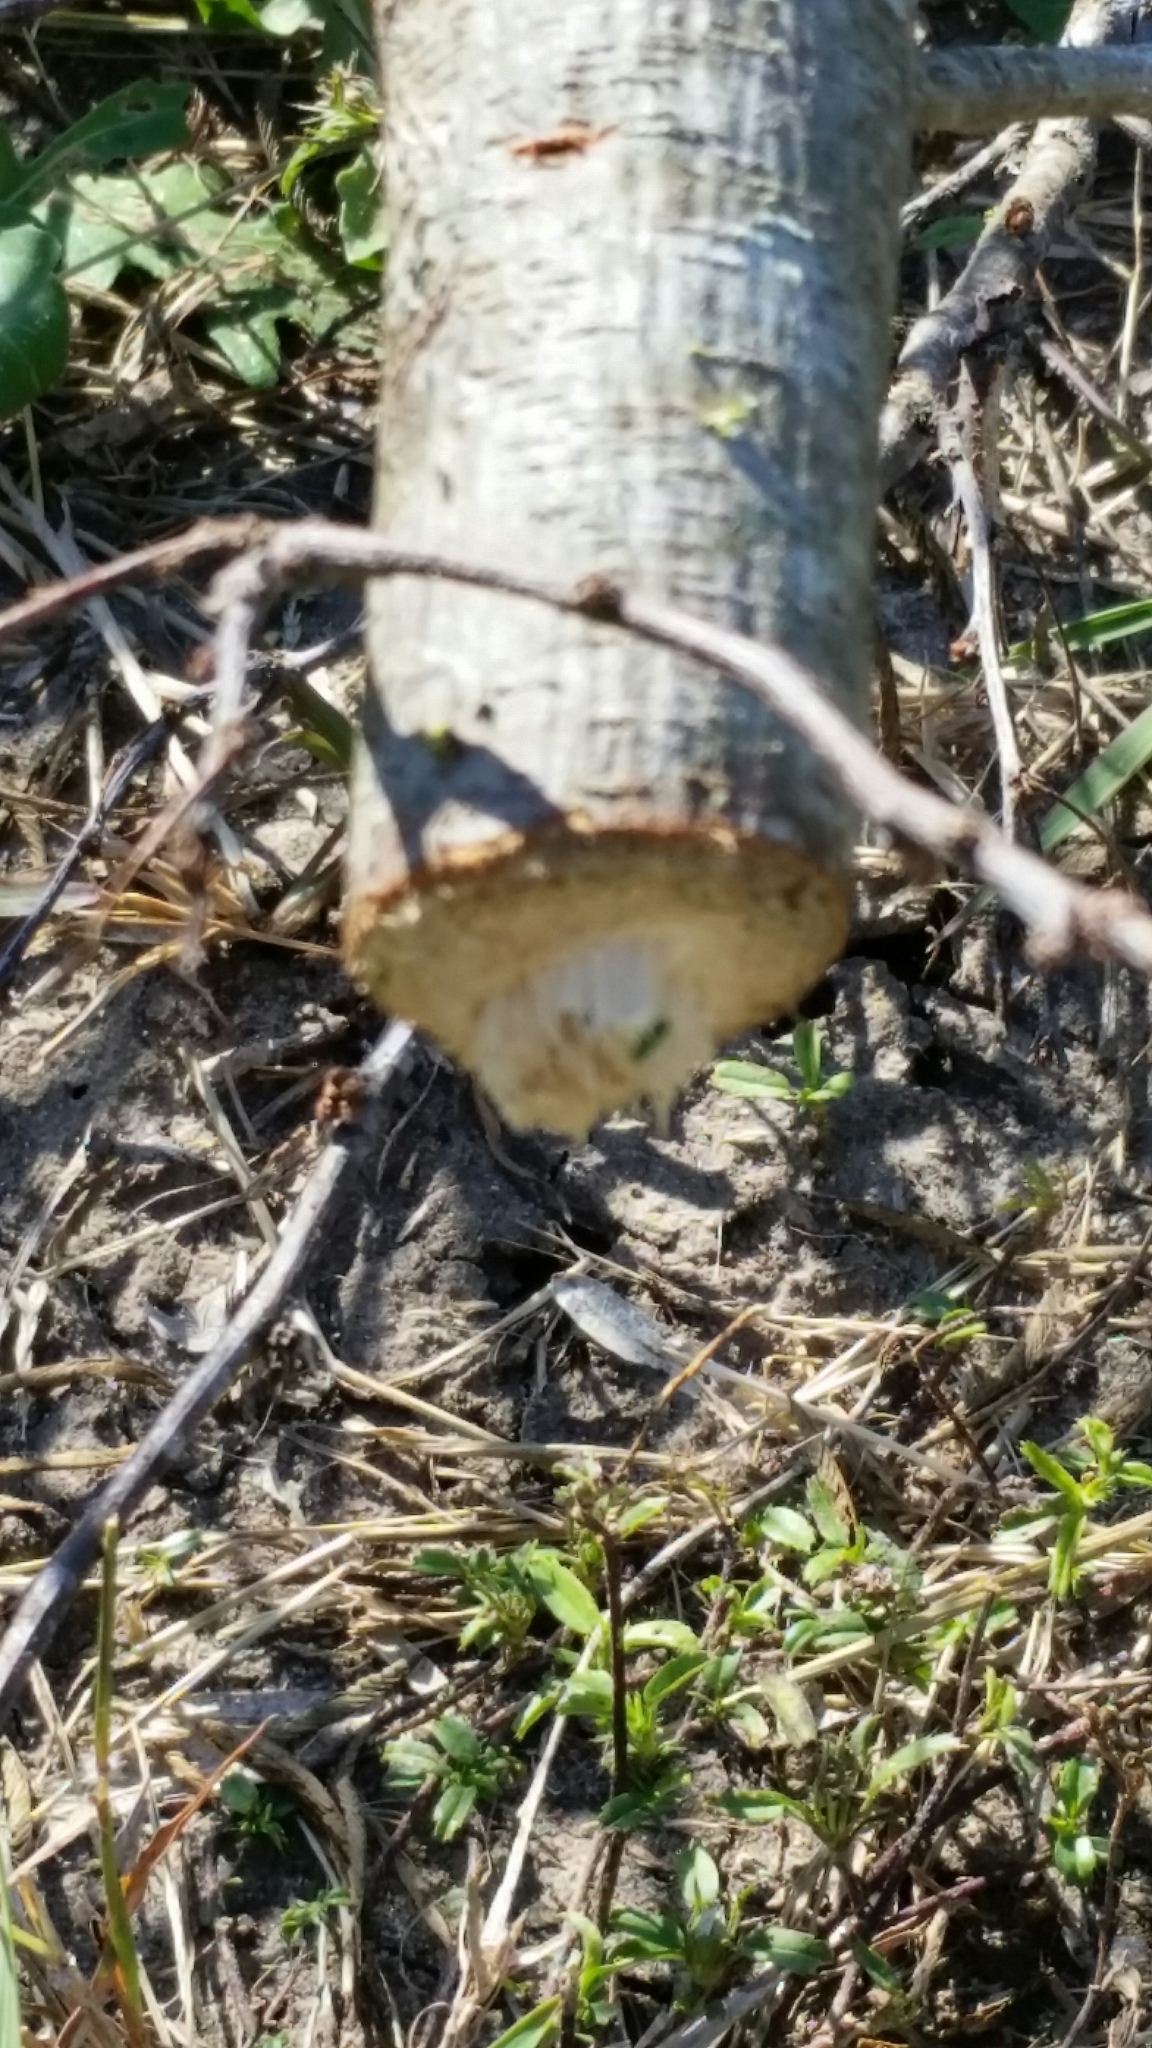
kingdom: Animalia
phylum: Arthropoda
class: Insecta
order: Coleoptera
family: Cerambycidae
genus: Oncideres
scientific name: Oncideres pustulata
